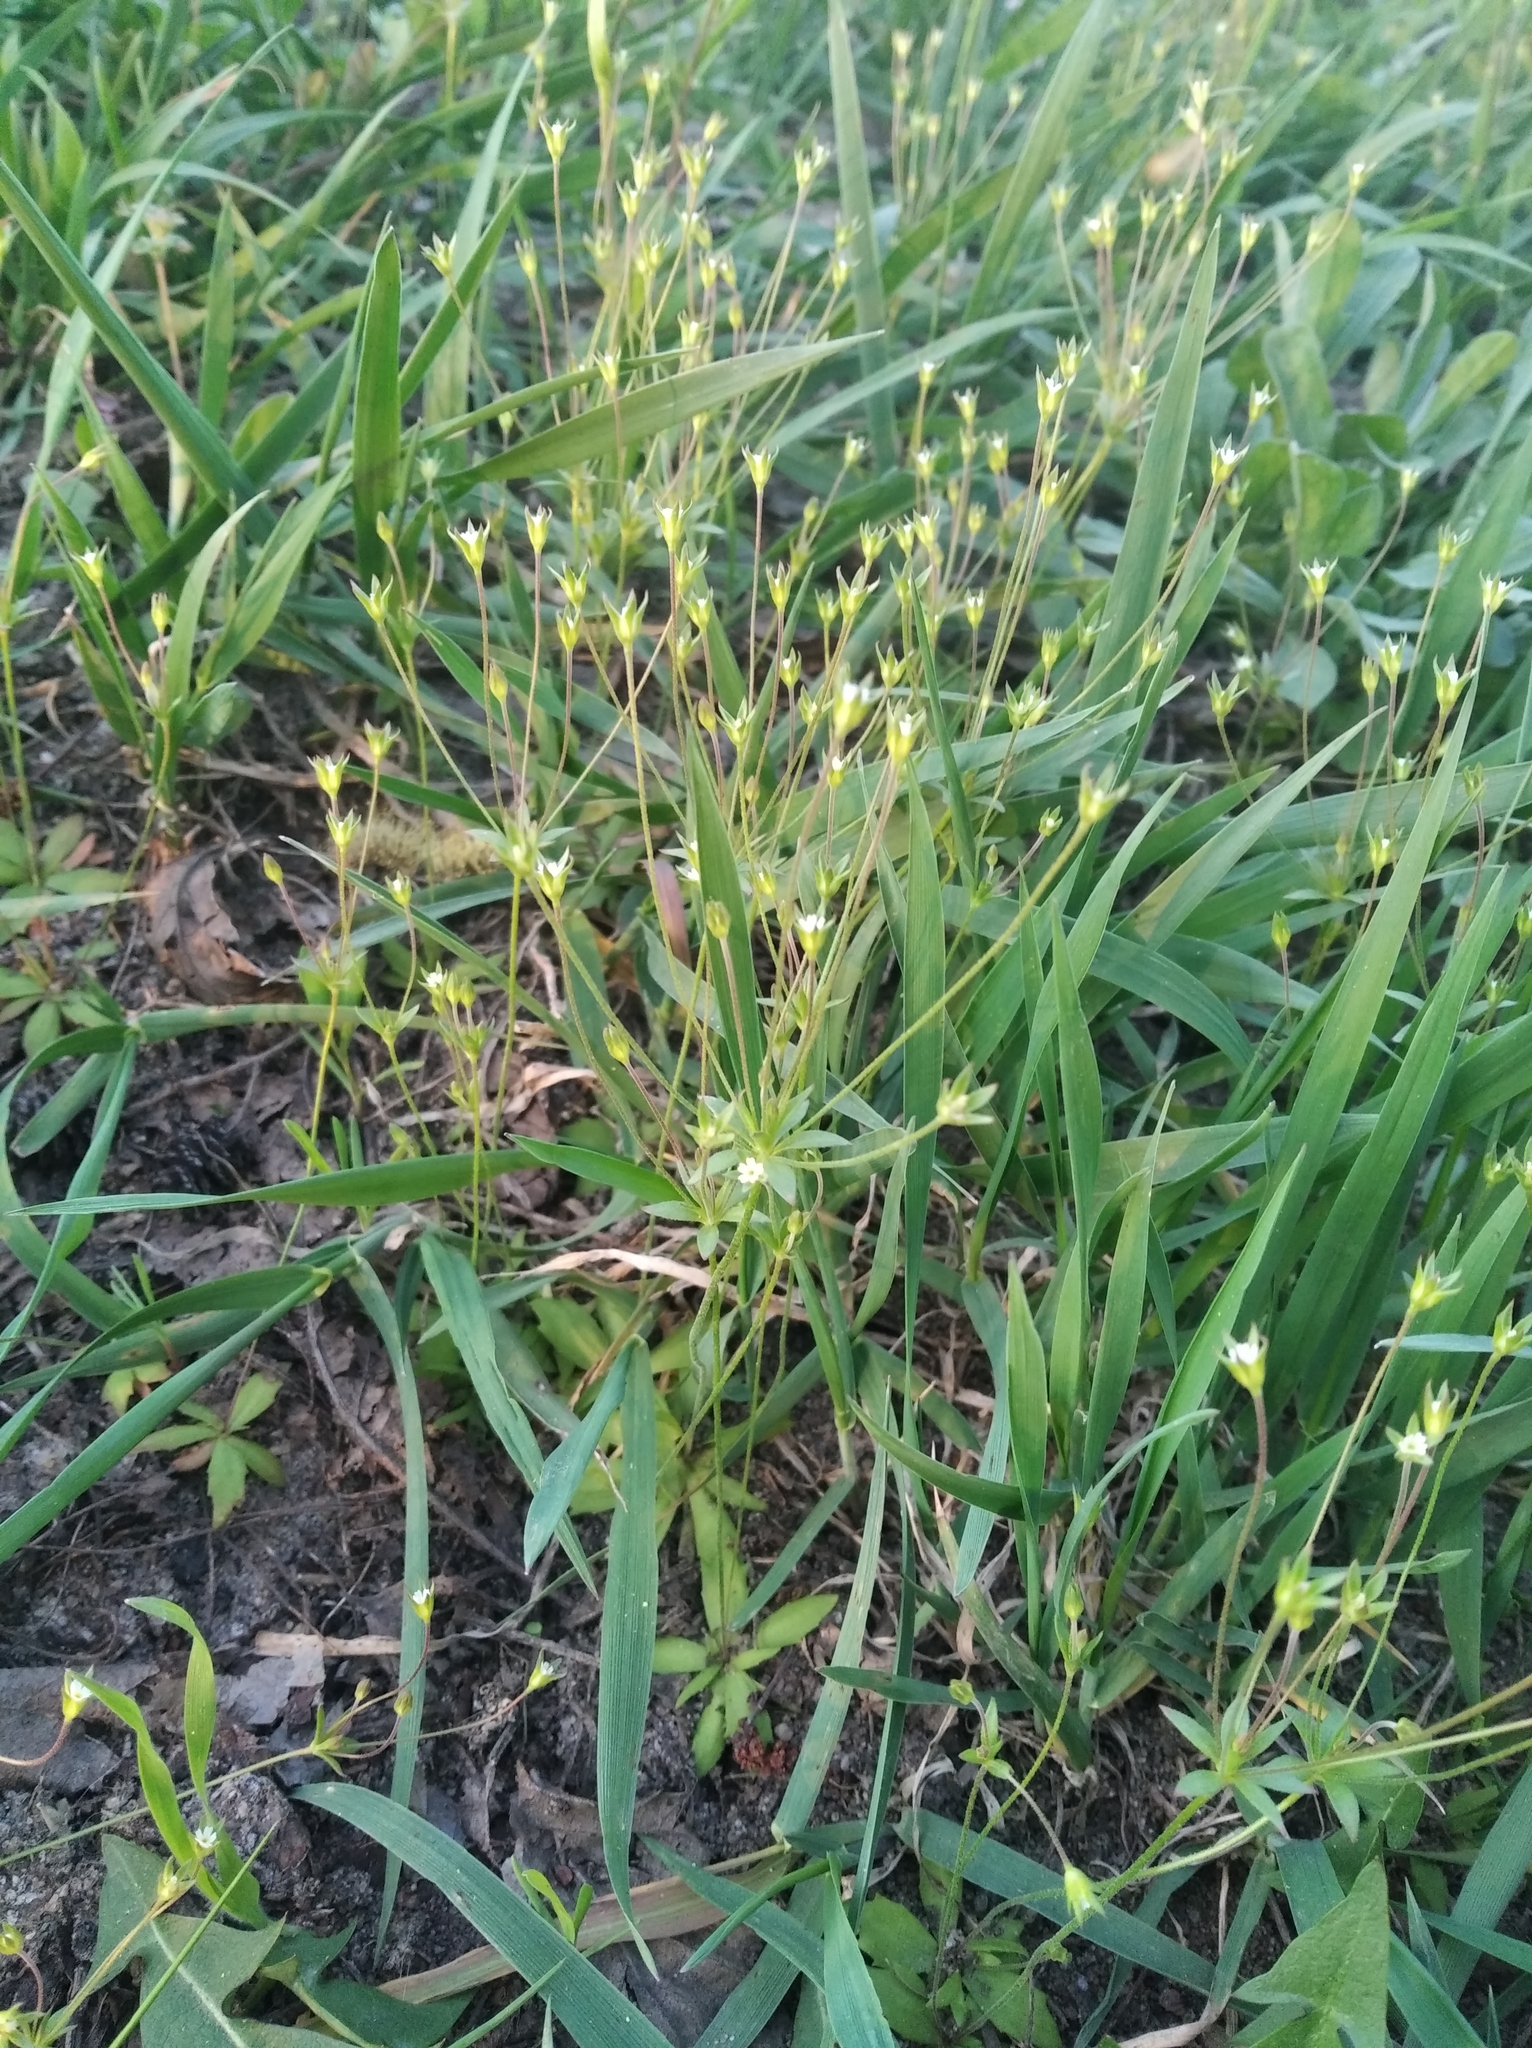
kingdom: Plantae
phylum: Tracheophyta
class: Magnoliopsida
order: Ericales
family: Primulaceae
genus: Androsace
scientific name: Androsace elongata
